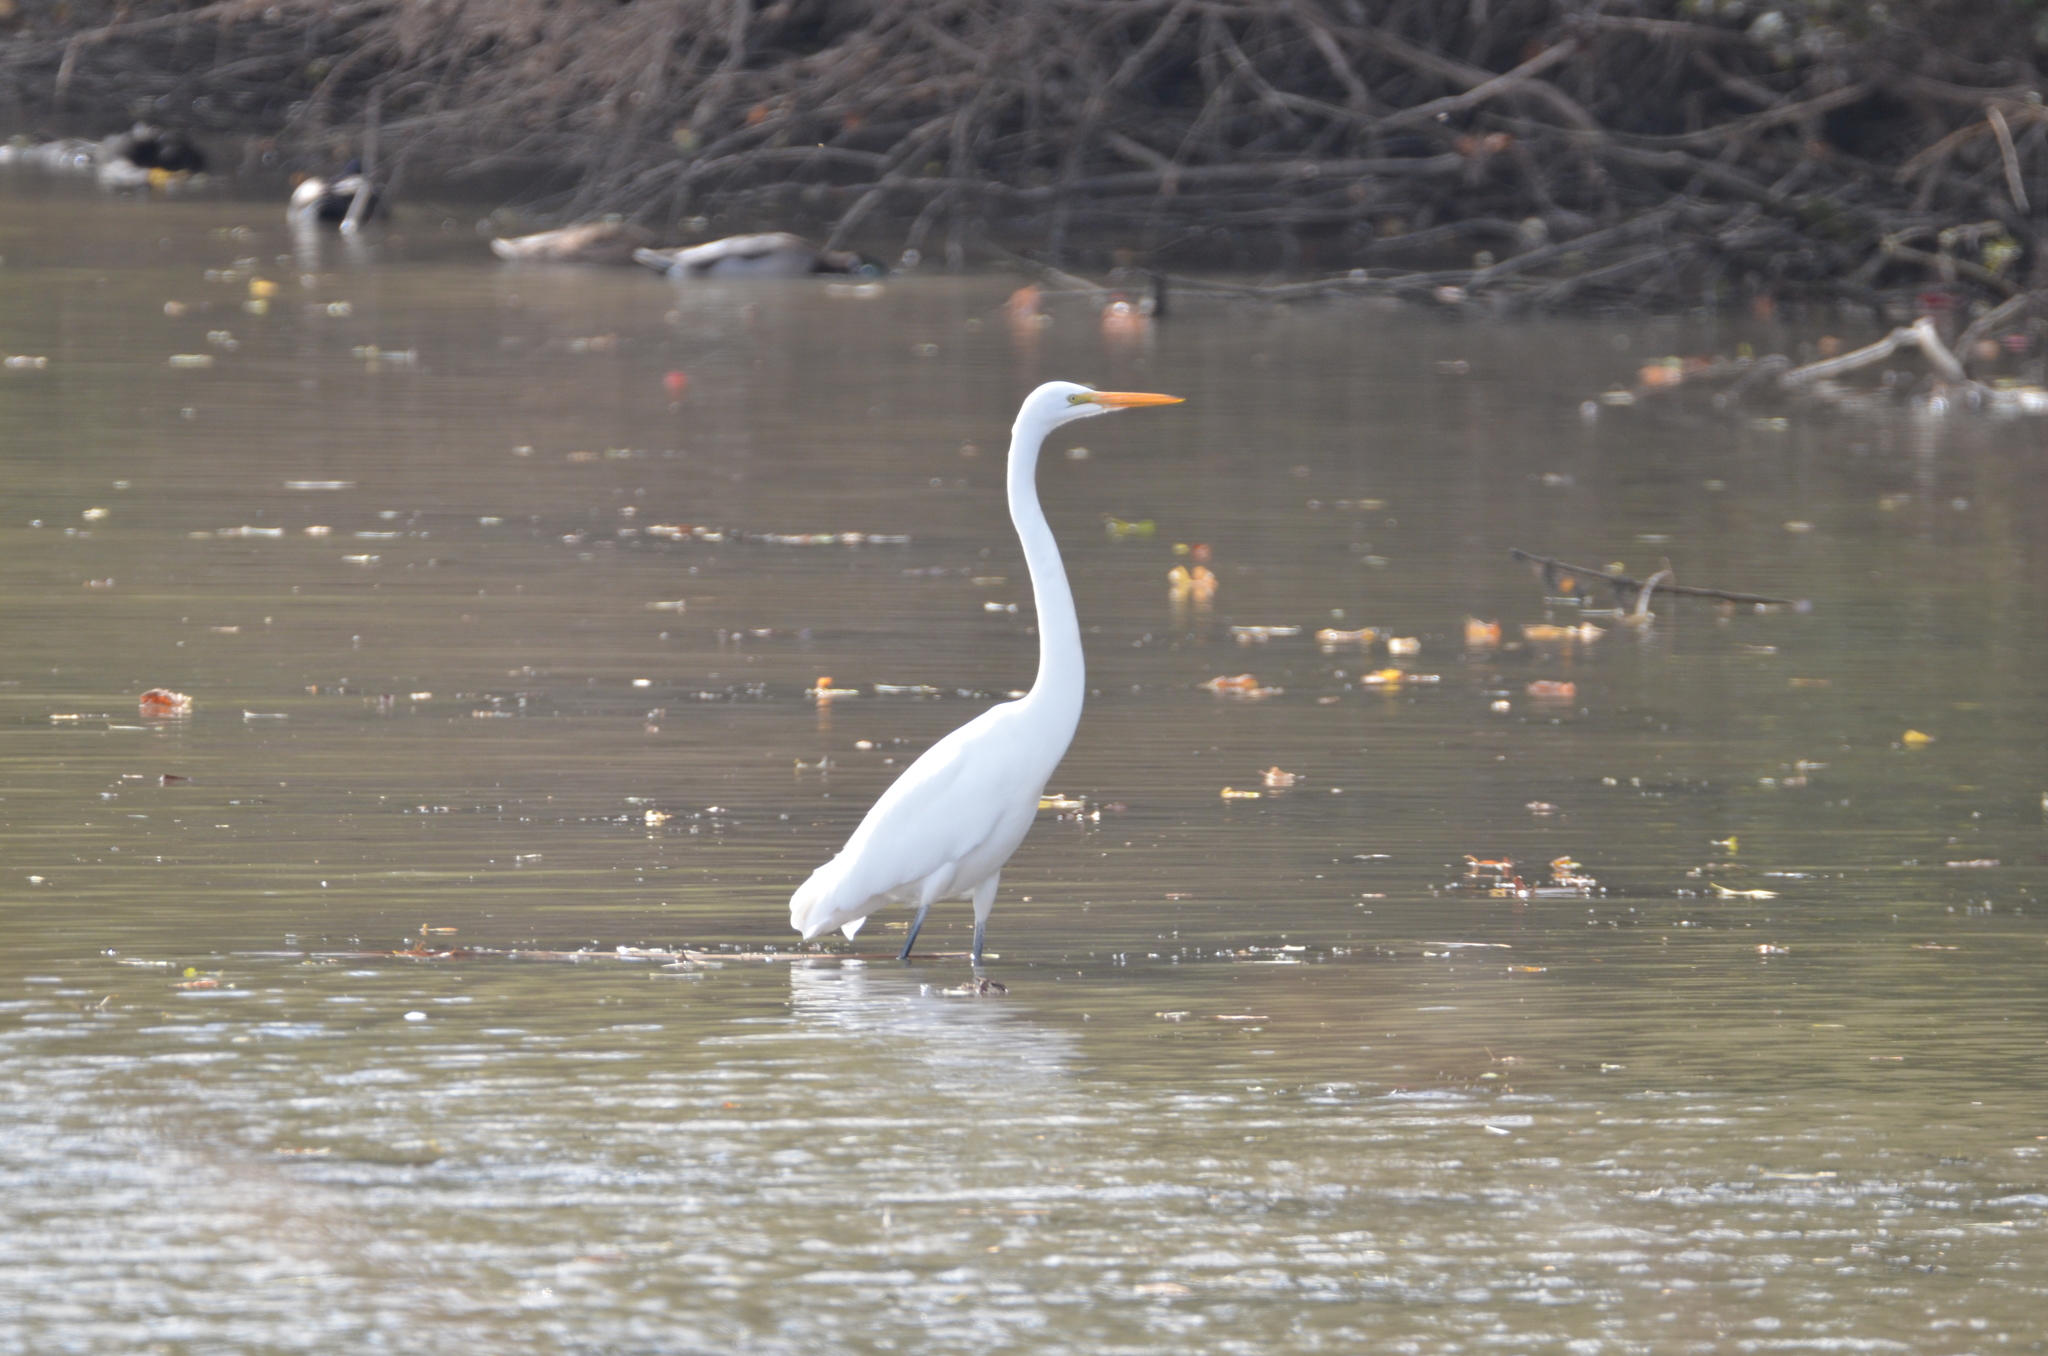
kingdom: Animalia
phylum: Chordata
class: Aves
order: Pelecaniformes
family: Ardeidae
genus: Ardea
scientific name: Ardea alba
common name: Great egret
